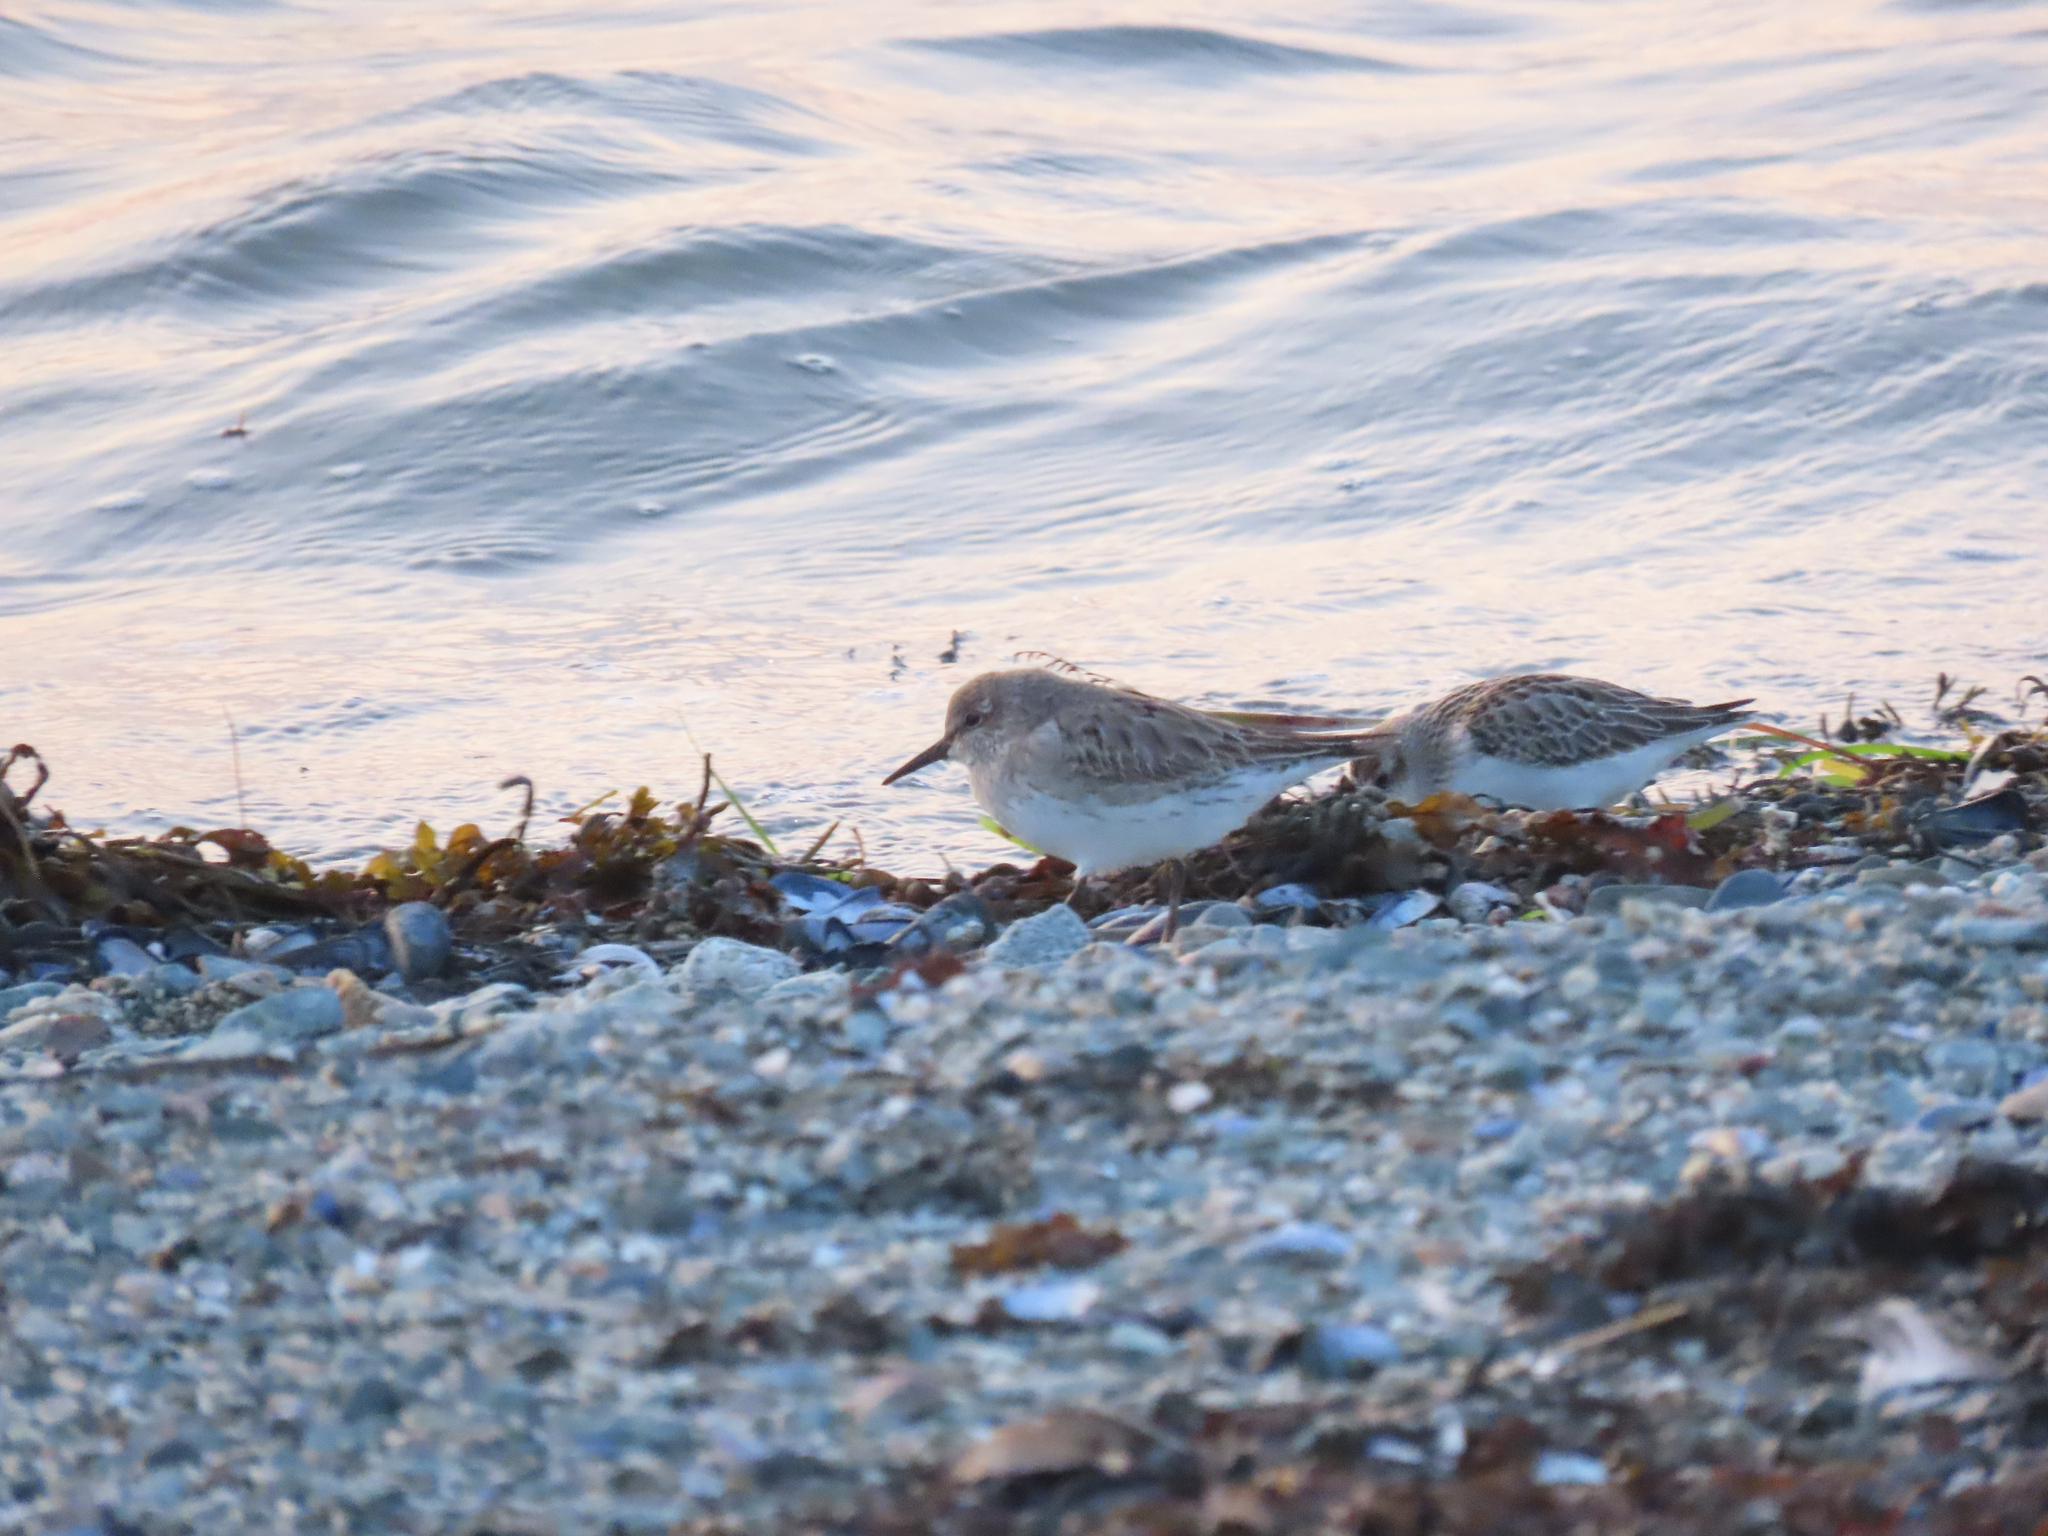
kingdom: Animalia
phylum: Chordata
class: Aves
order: Charadriiformes
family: Scolopacidae
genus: Calidris
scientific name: Calidris fuscicollis
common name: White-rumped sandpiper
